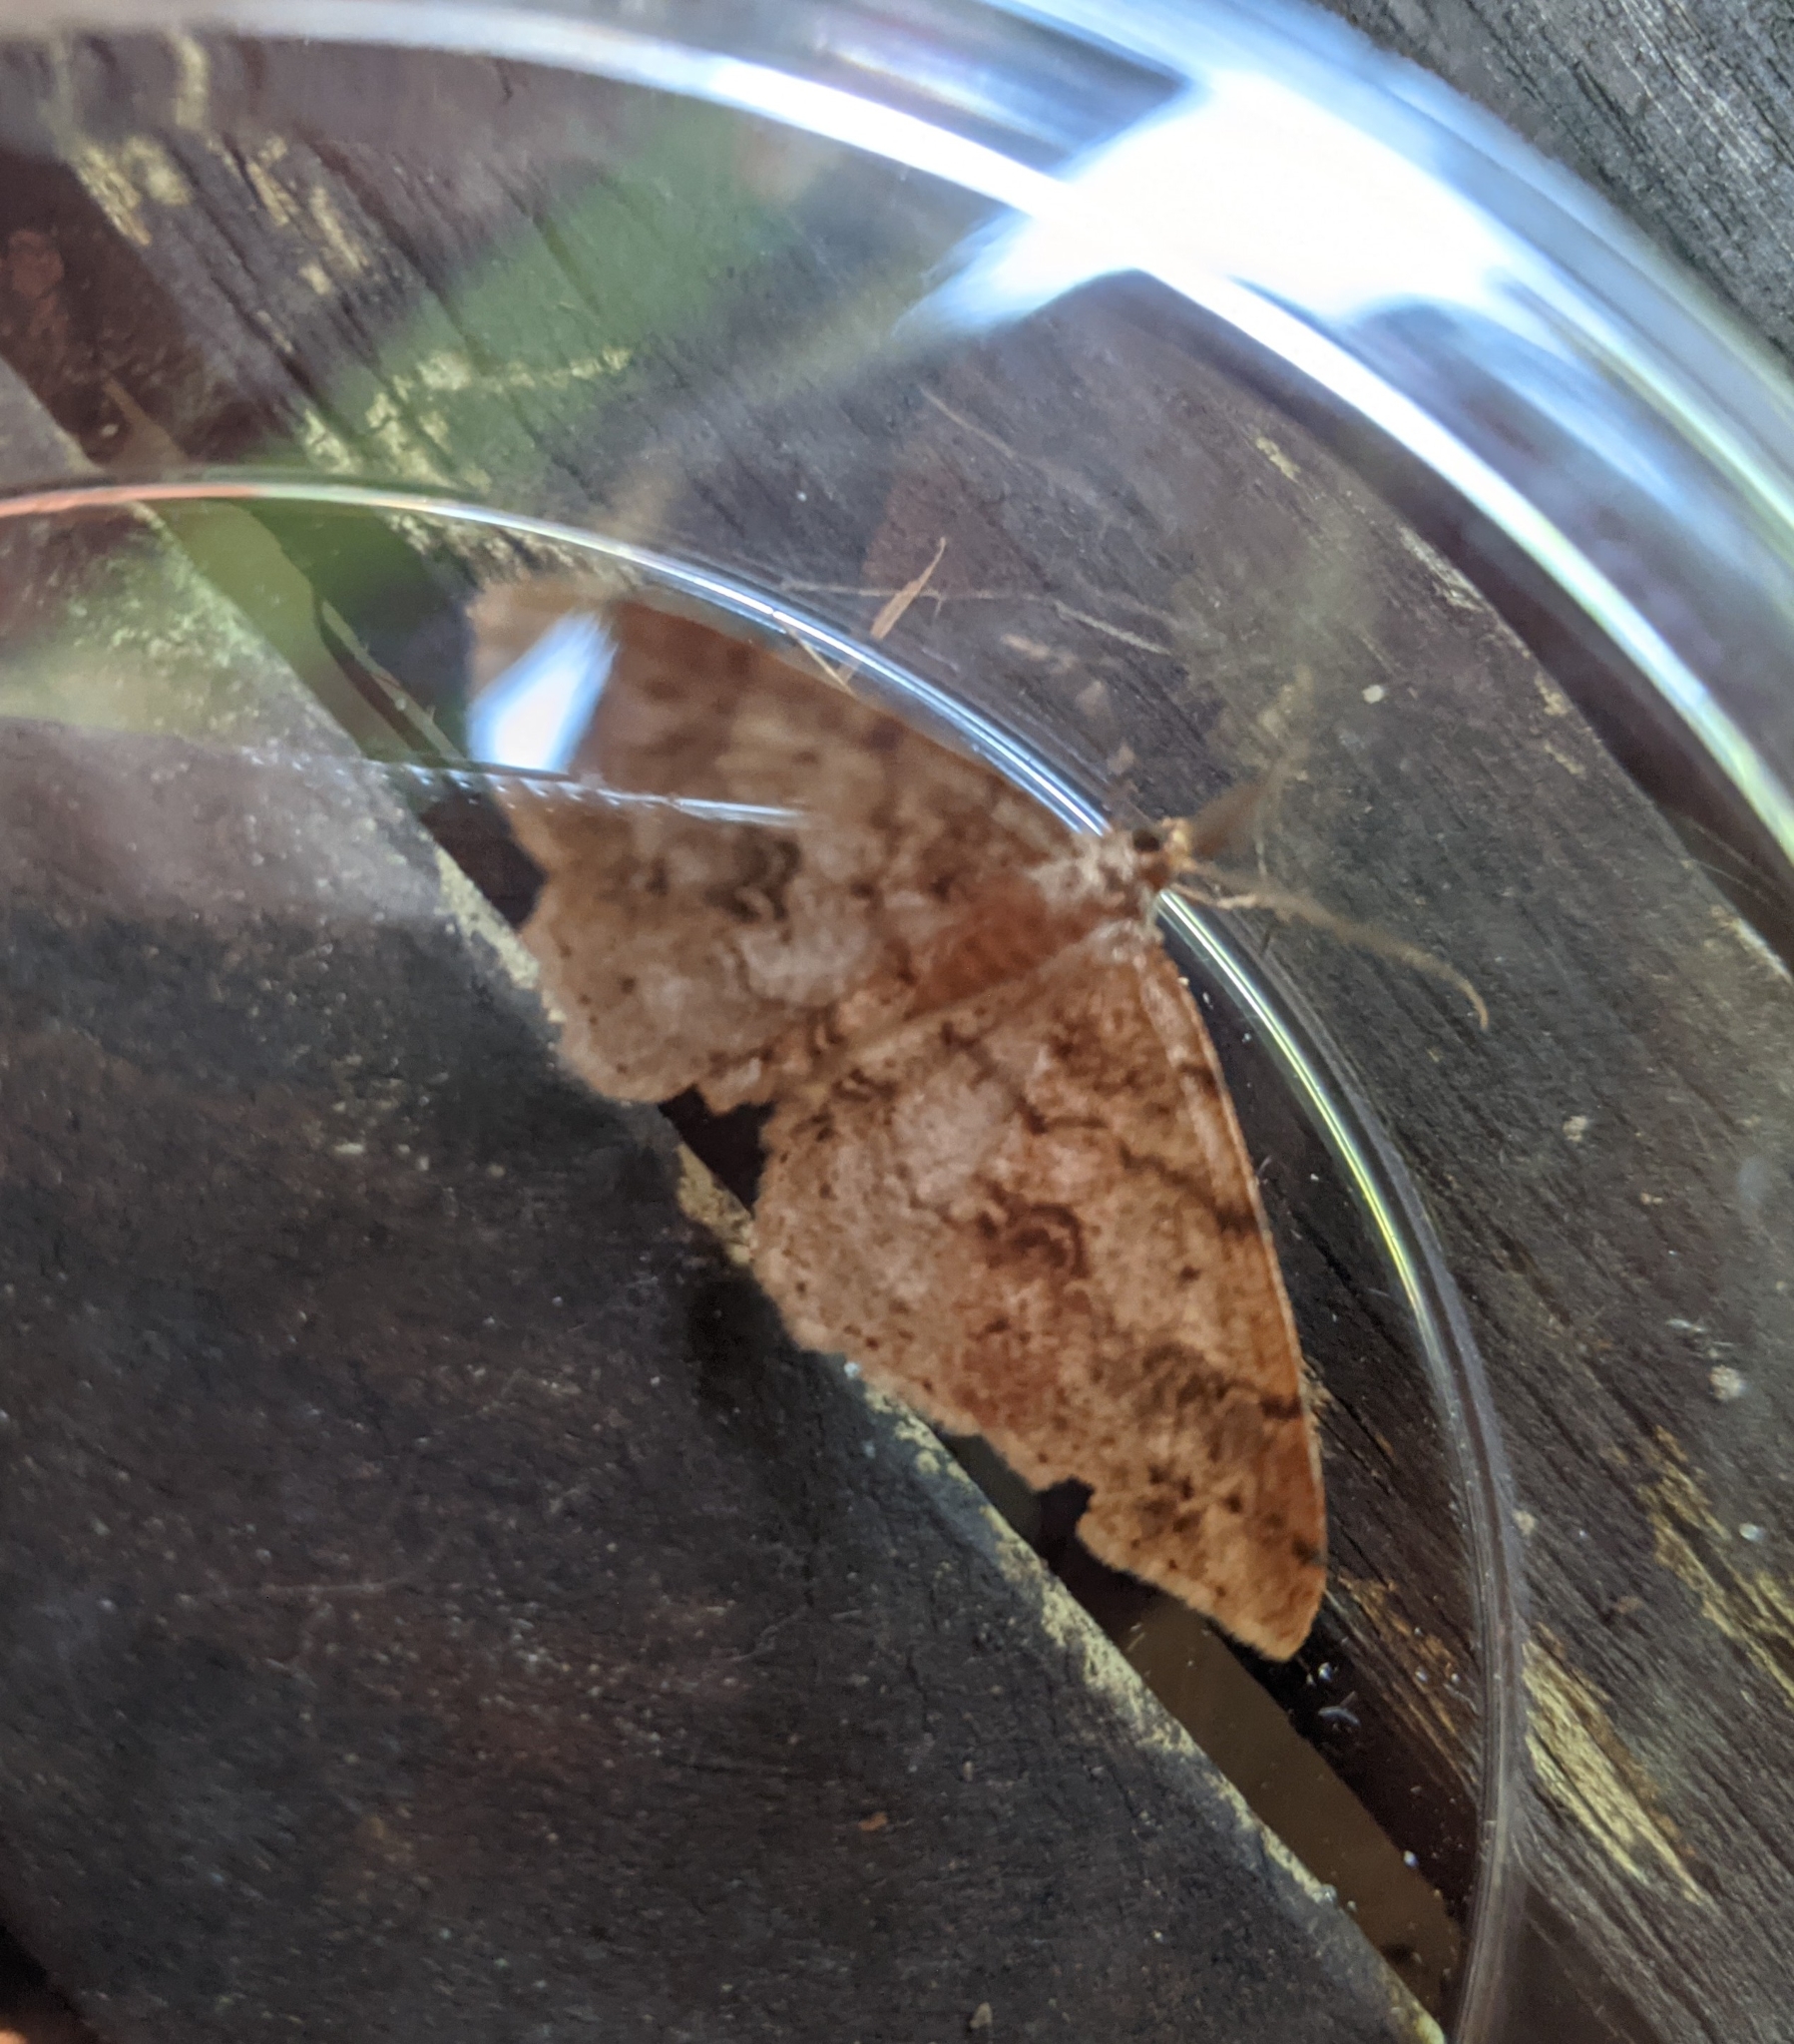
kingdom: Animalia
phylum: Arthropoda
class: Insecta
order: Lepidoptera
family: Geometridae
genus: Melanolophia
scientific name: Melanolophia imitata
